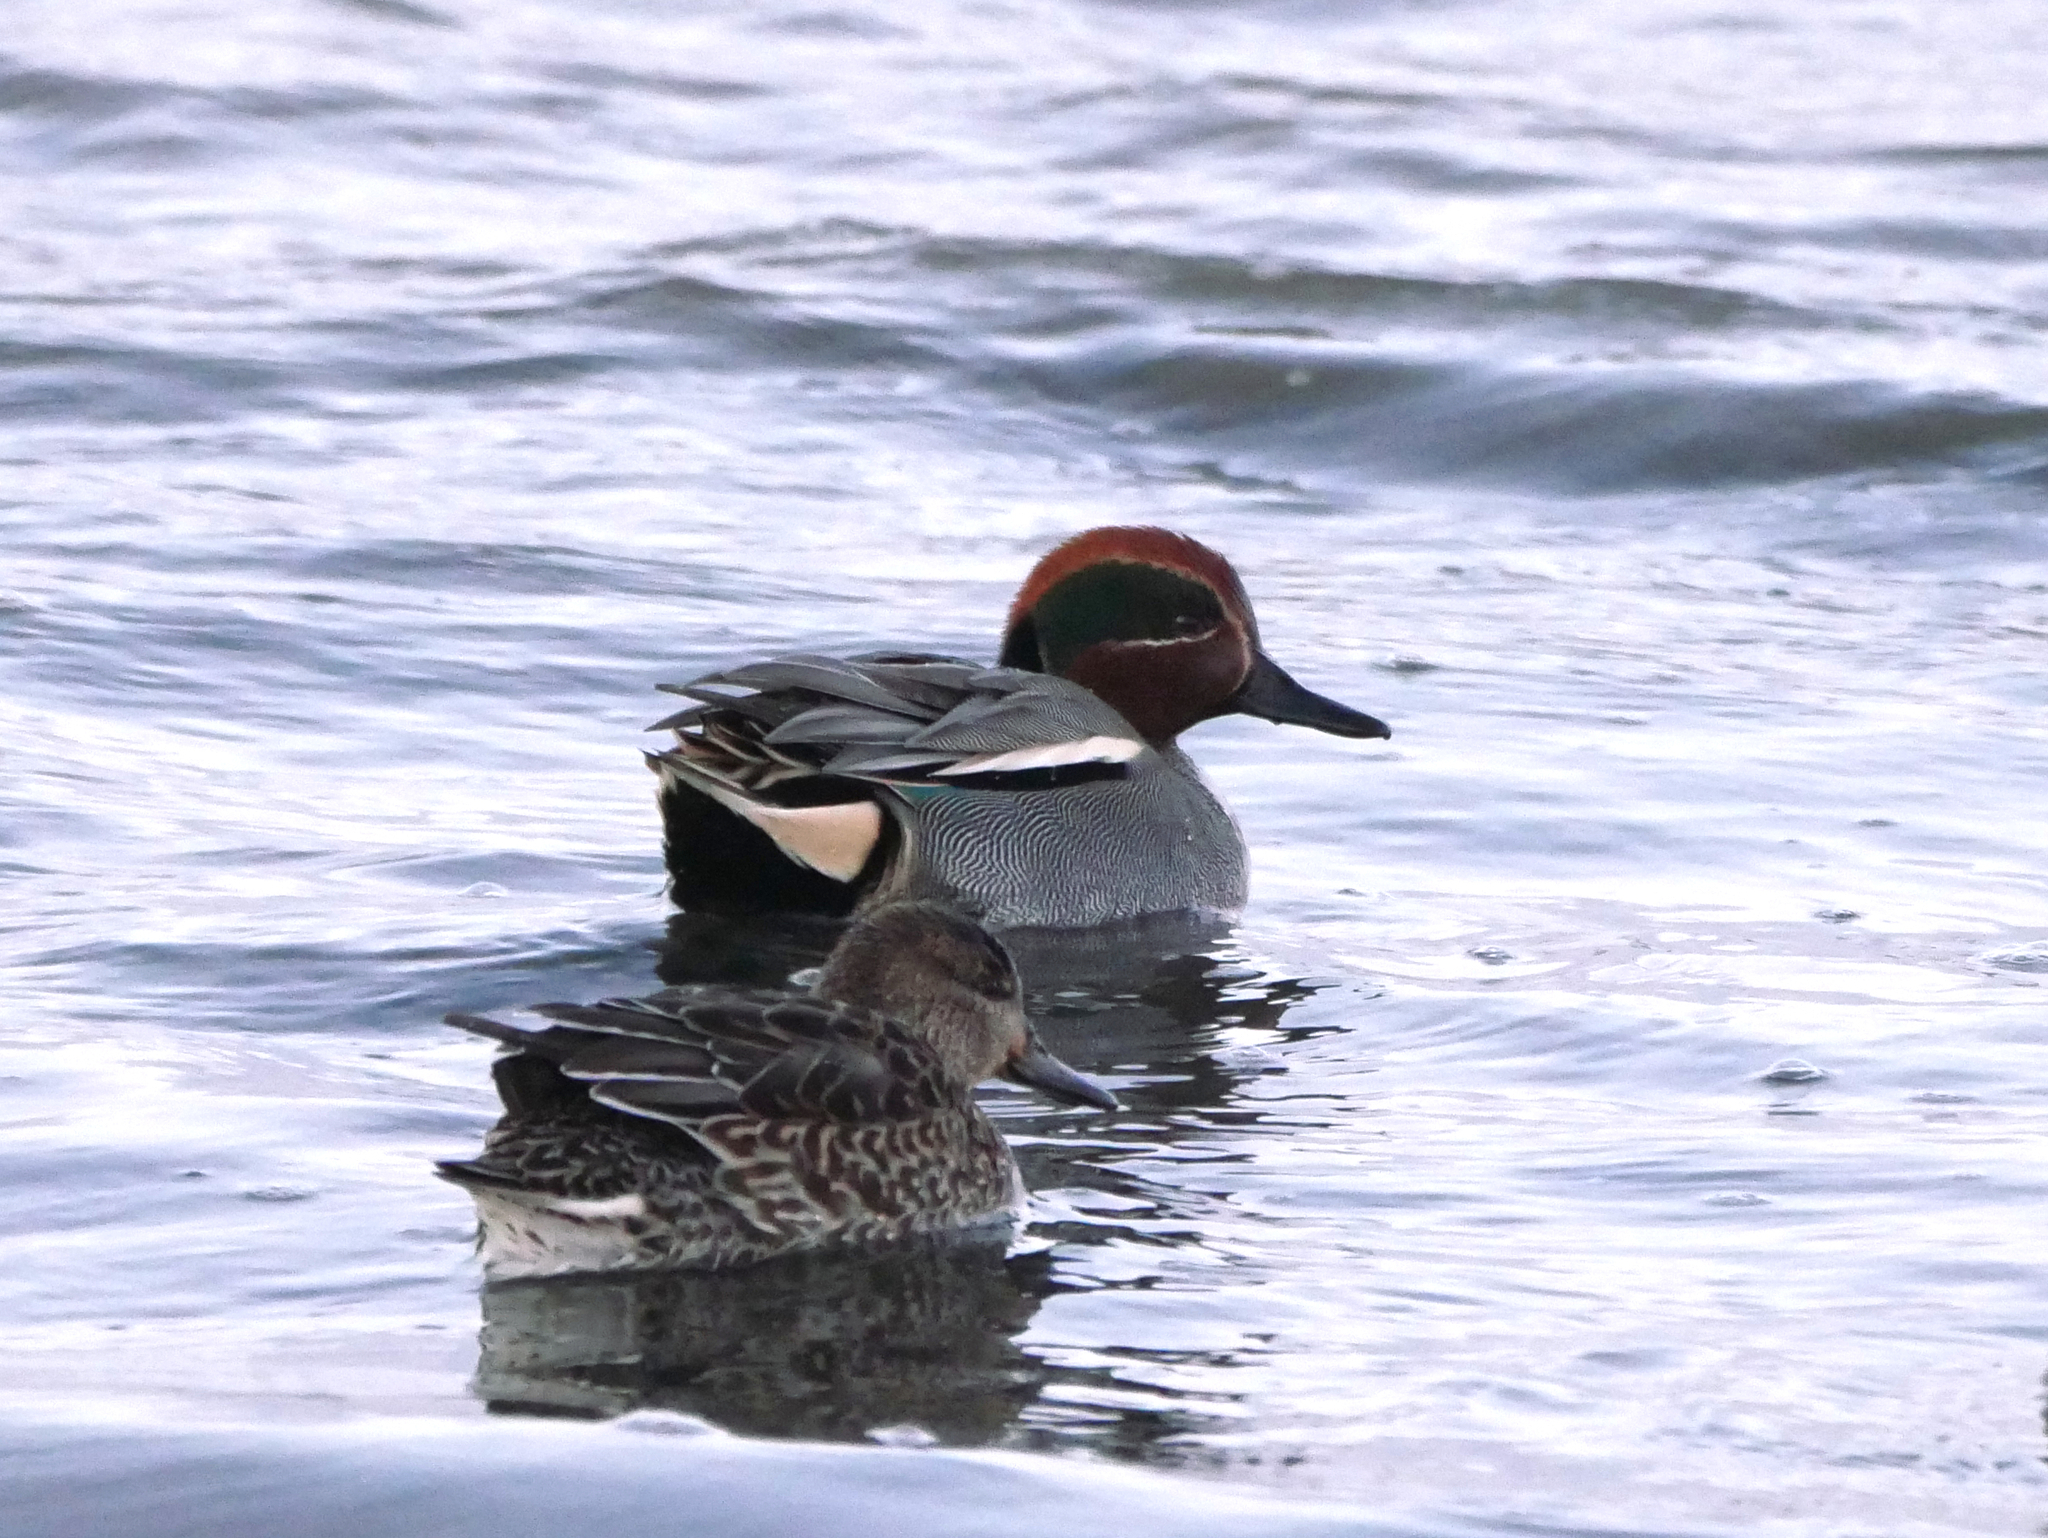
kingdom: Animalia
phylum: Chordata
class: Aves
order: Anseriformes
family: Anatidae
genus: Anas
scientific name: Anas crecca
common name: Eurasian teal
